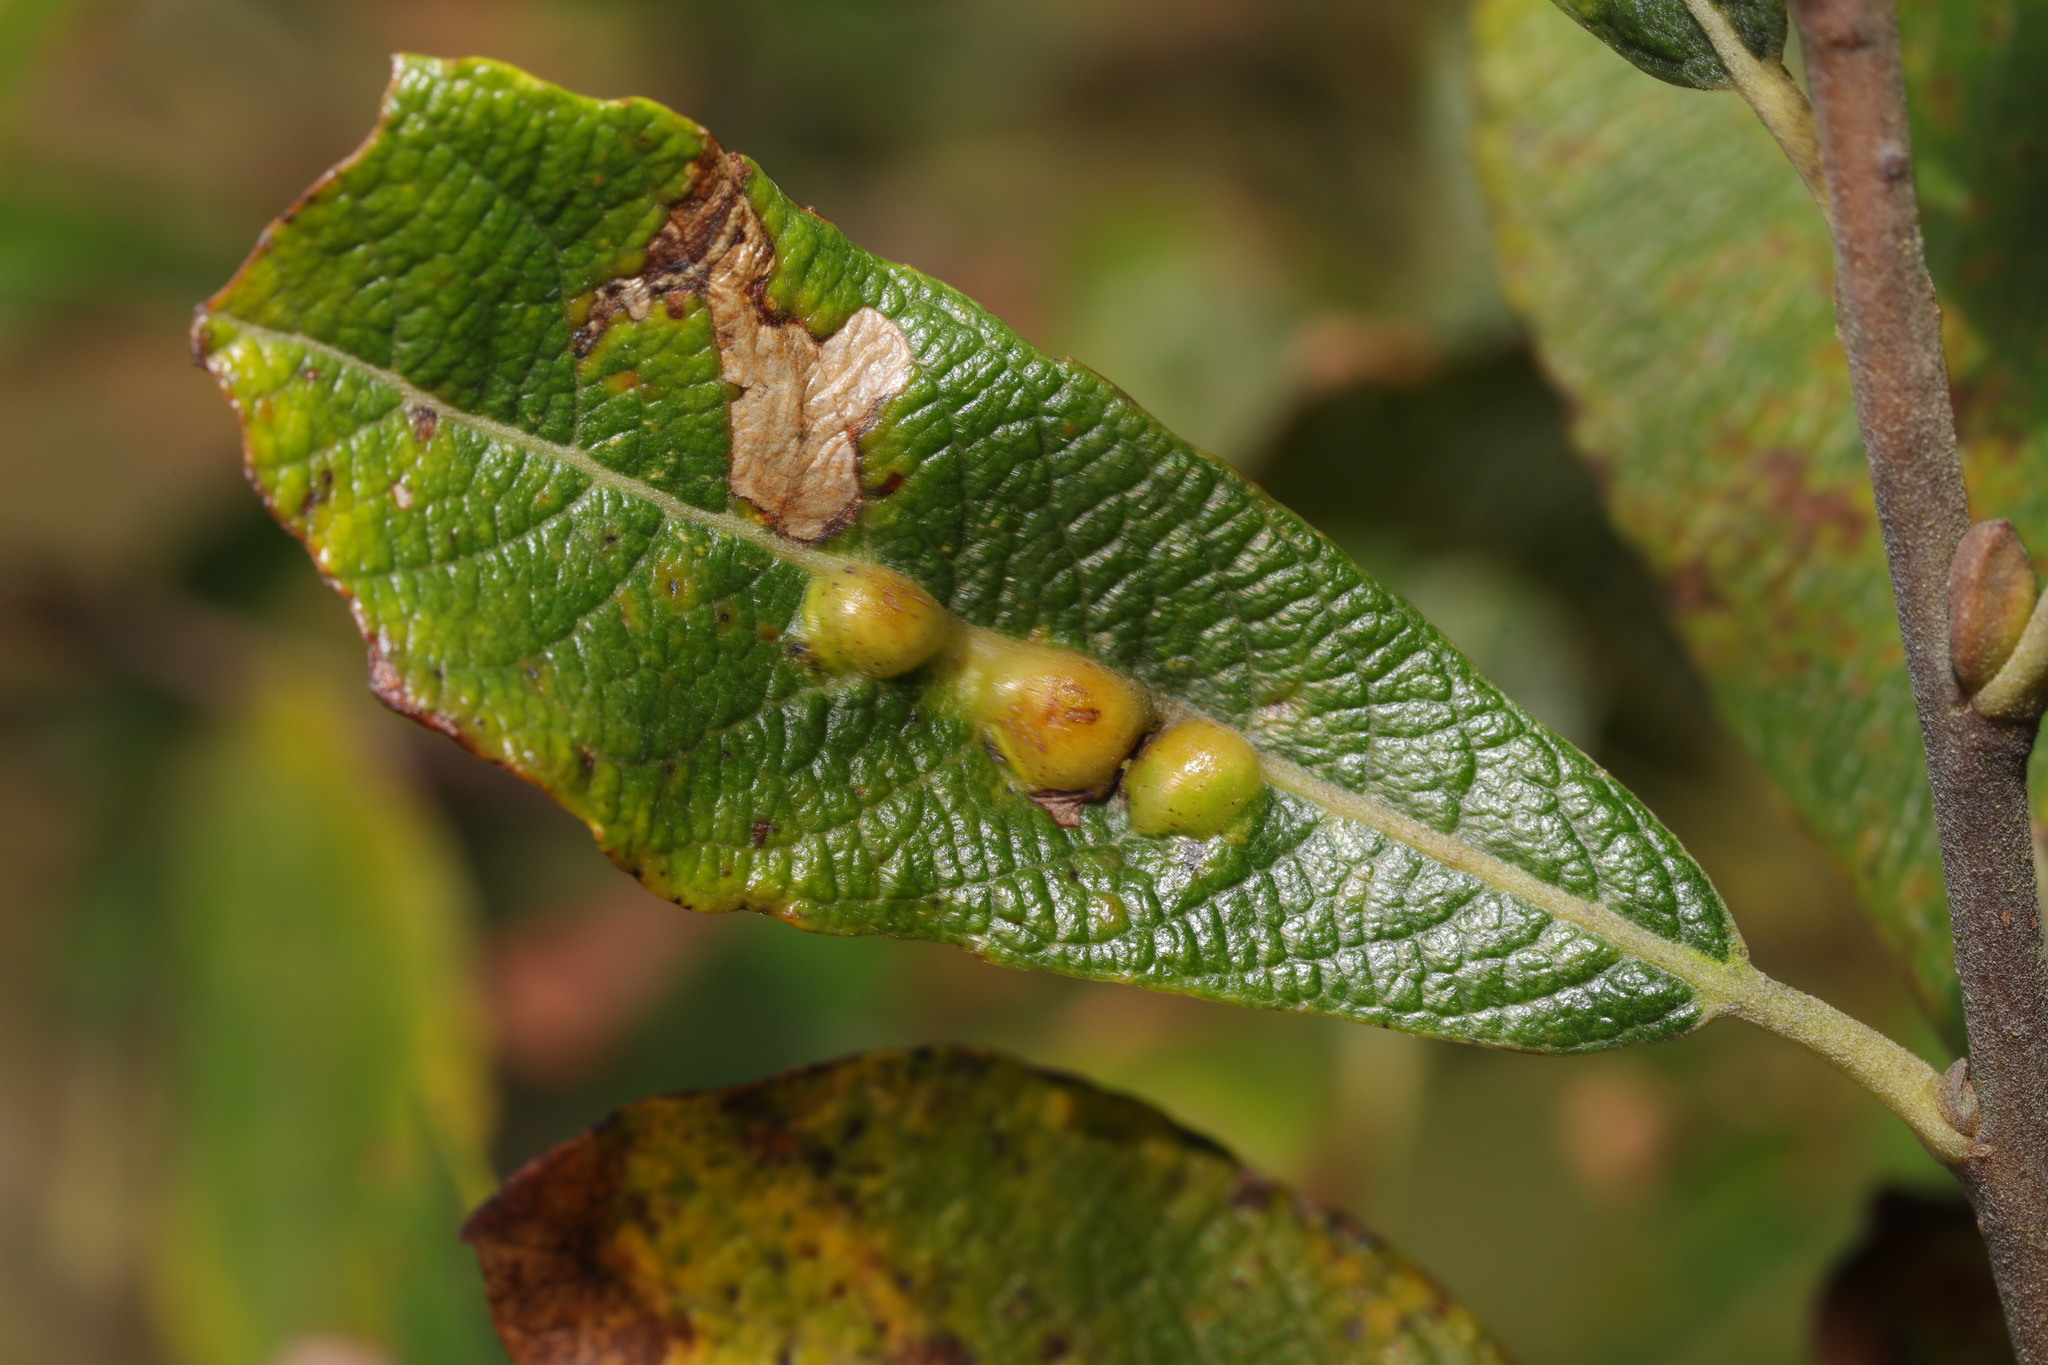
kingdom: Animalia
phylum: Arthropoda
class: Insecta
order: Diptera
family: Cecidomyiidae
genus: Iteomyia
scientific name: Iteomyia major
